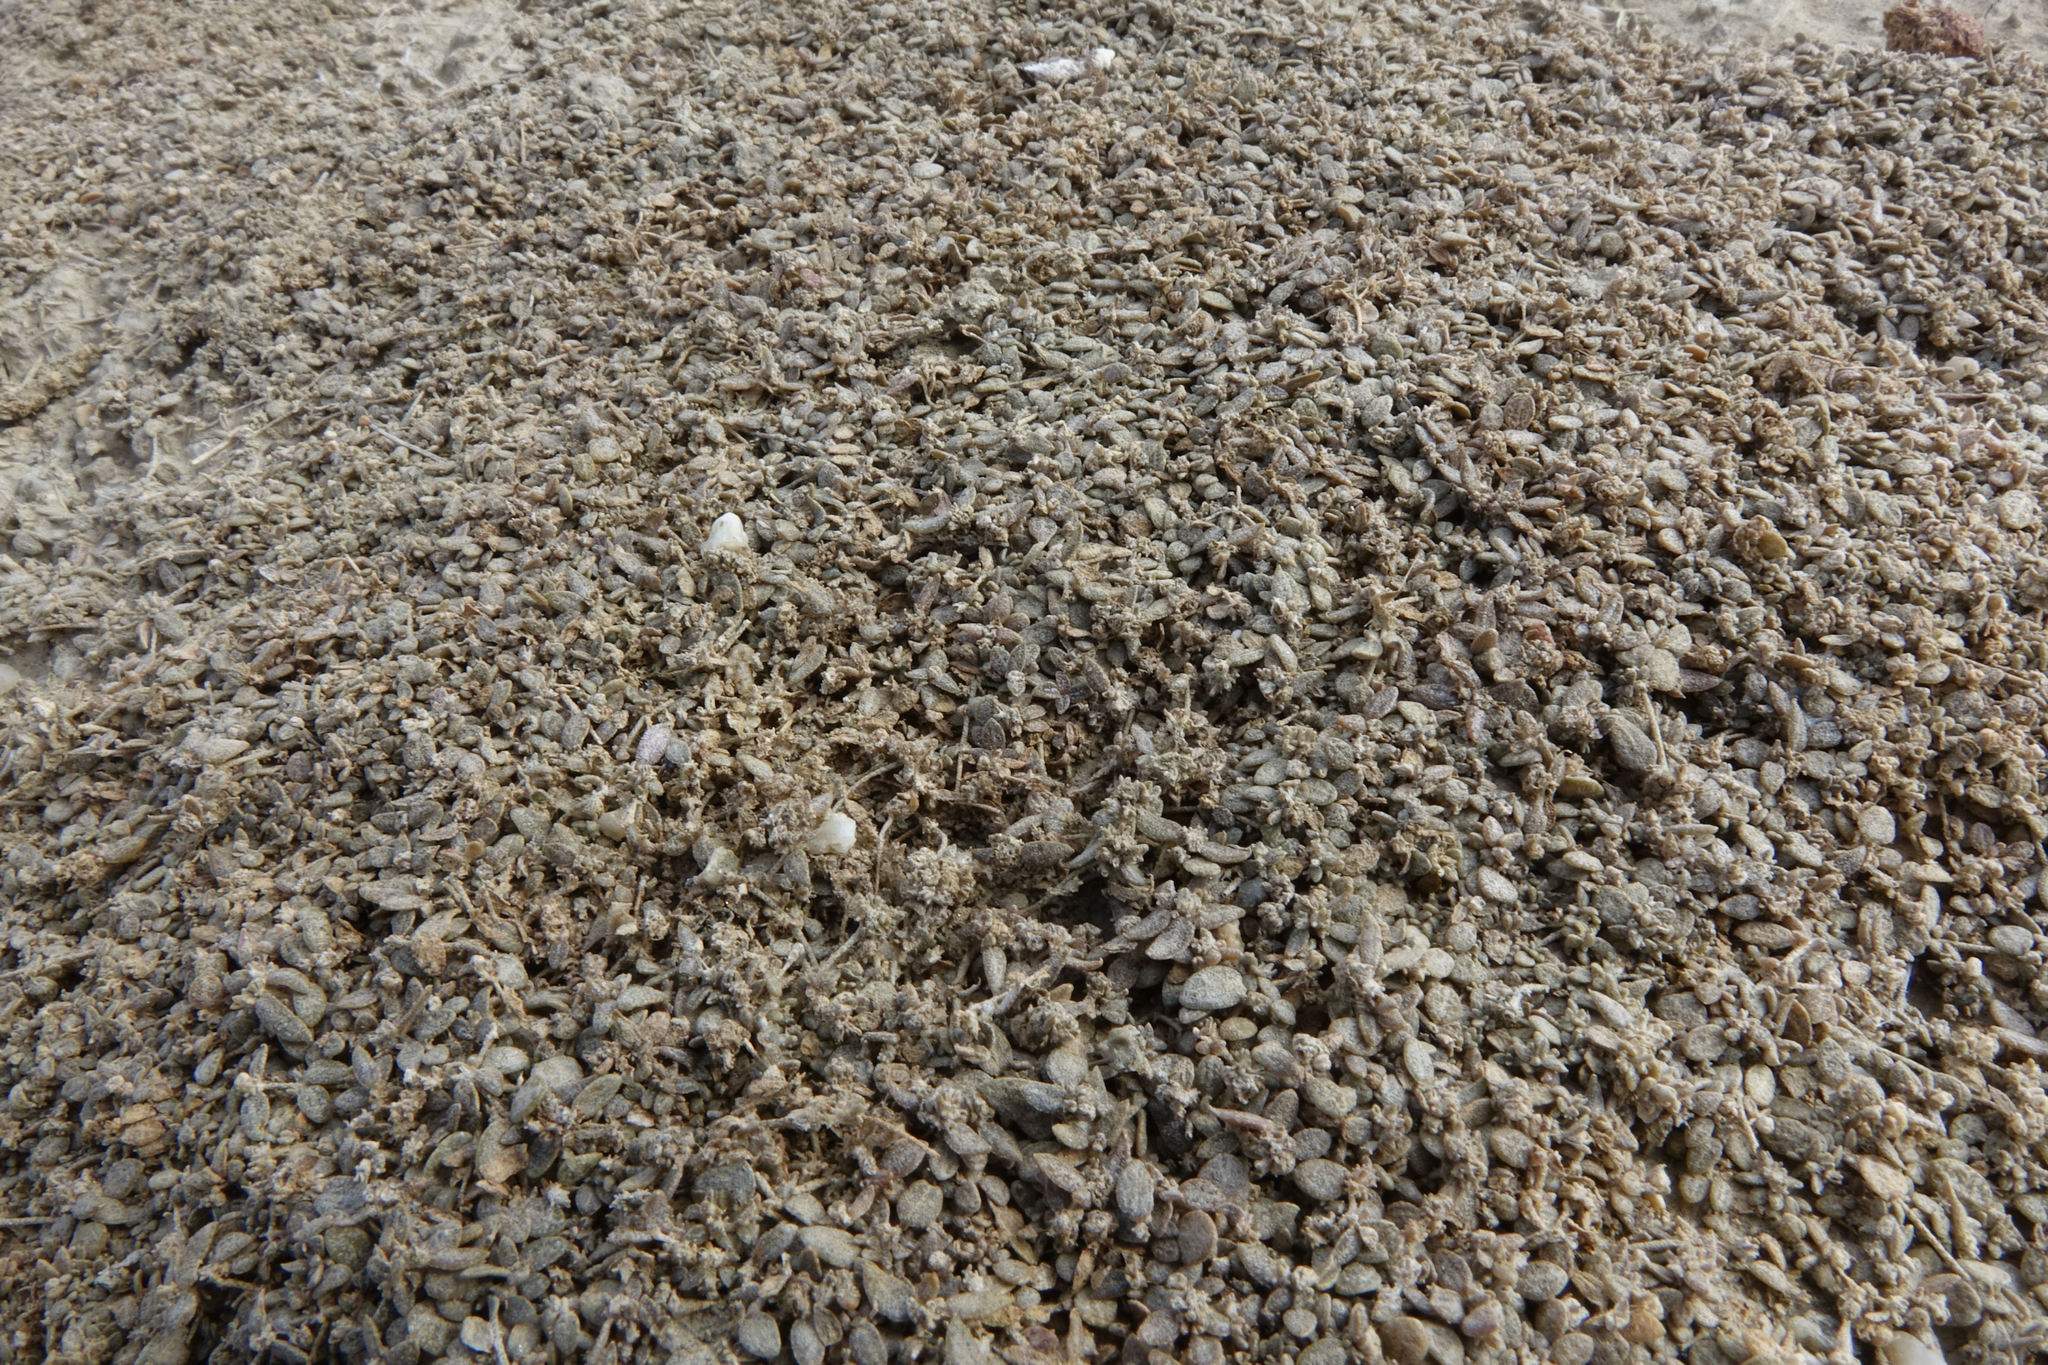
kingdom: Plantae
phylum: Tracheophyta
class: Magnoliopsida
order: Caryophyllales
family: Amaranthaceae
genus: Atriplex
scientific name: Atriplex buchananii
